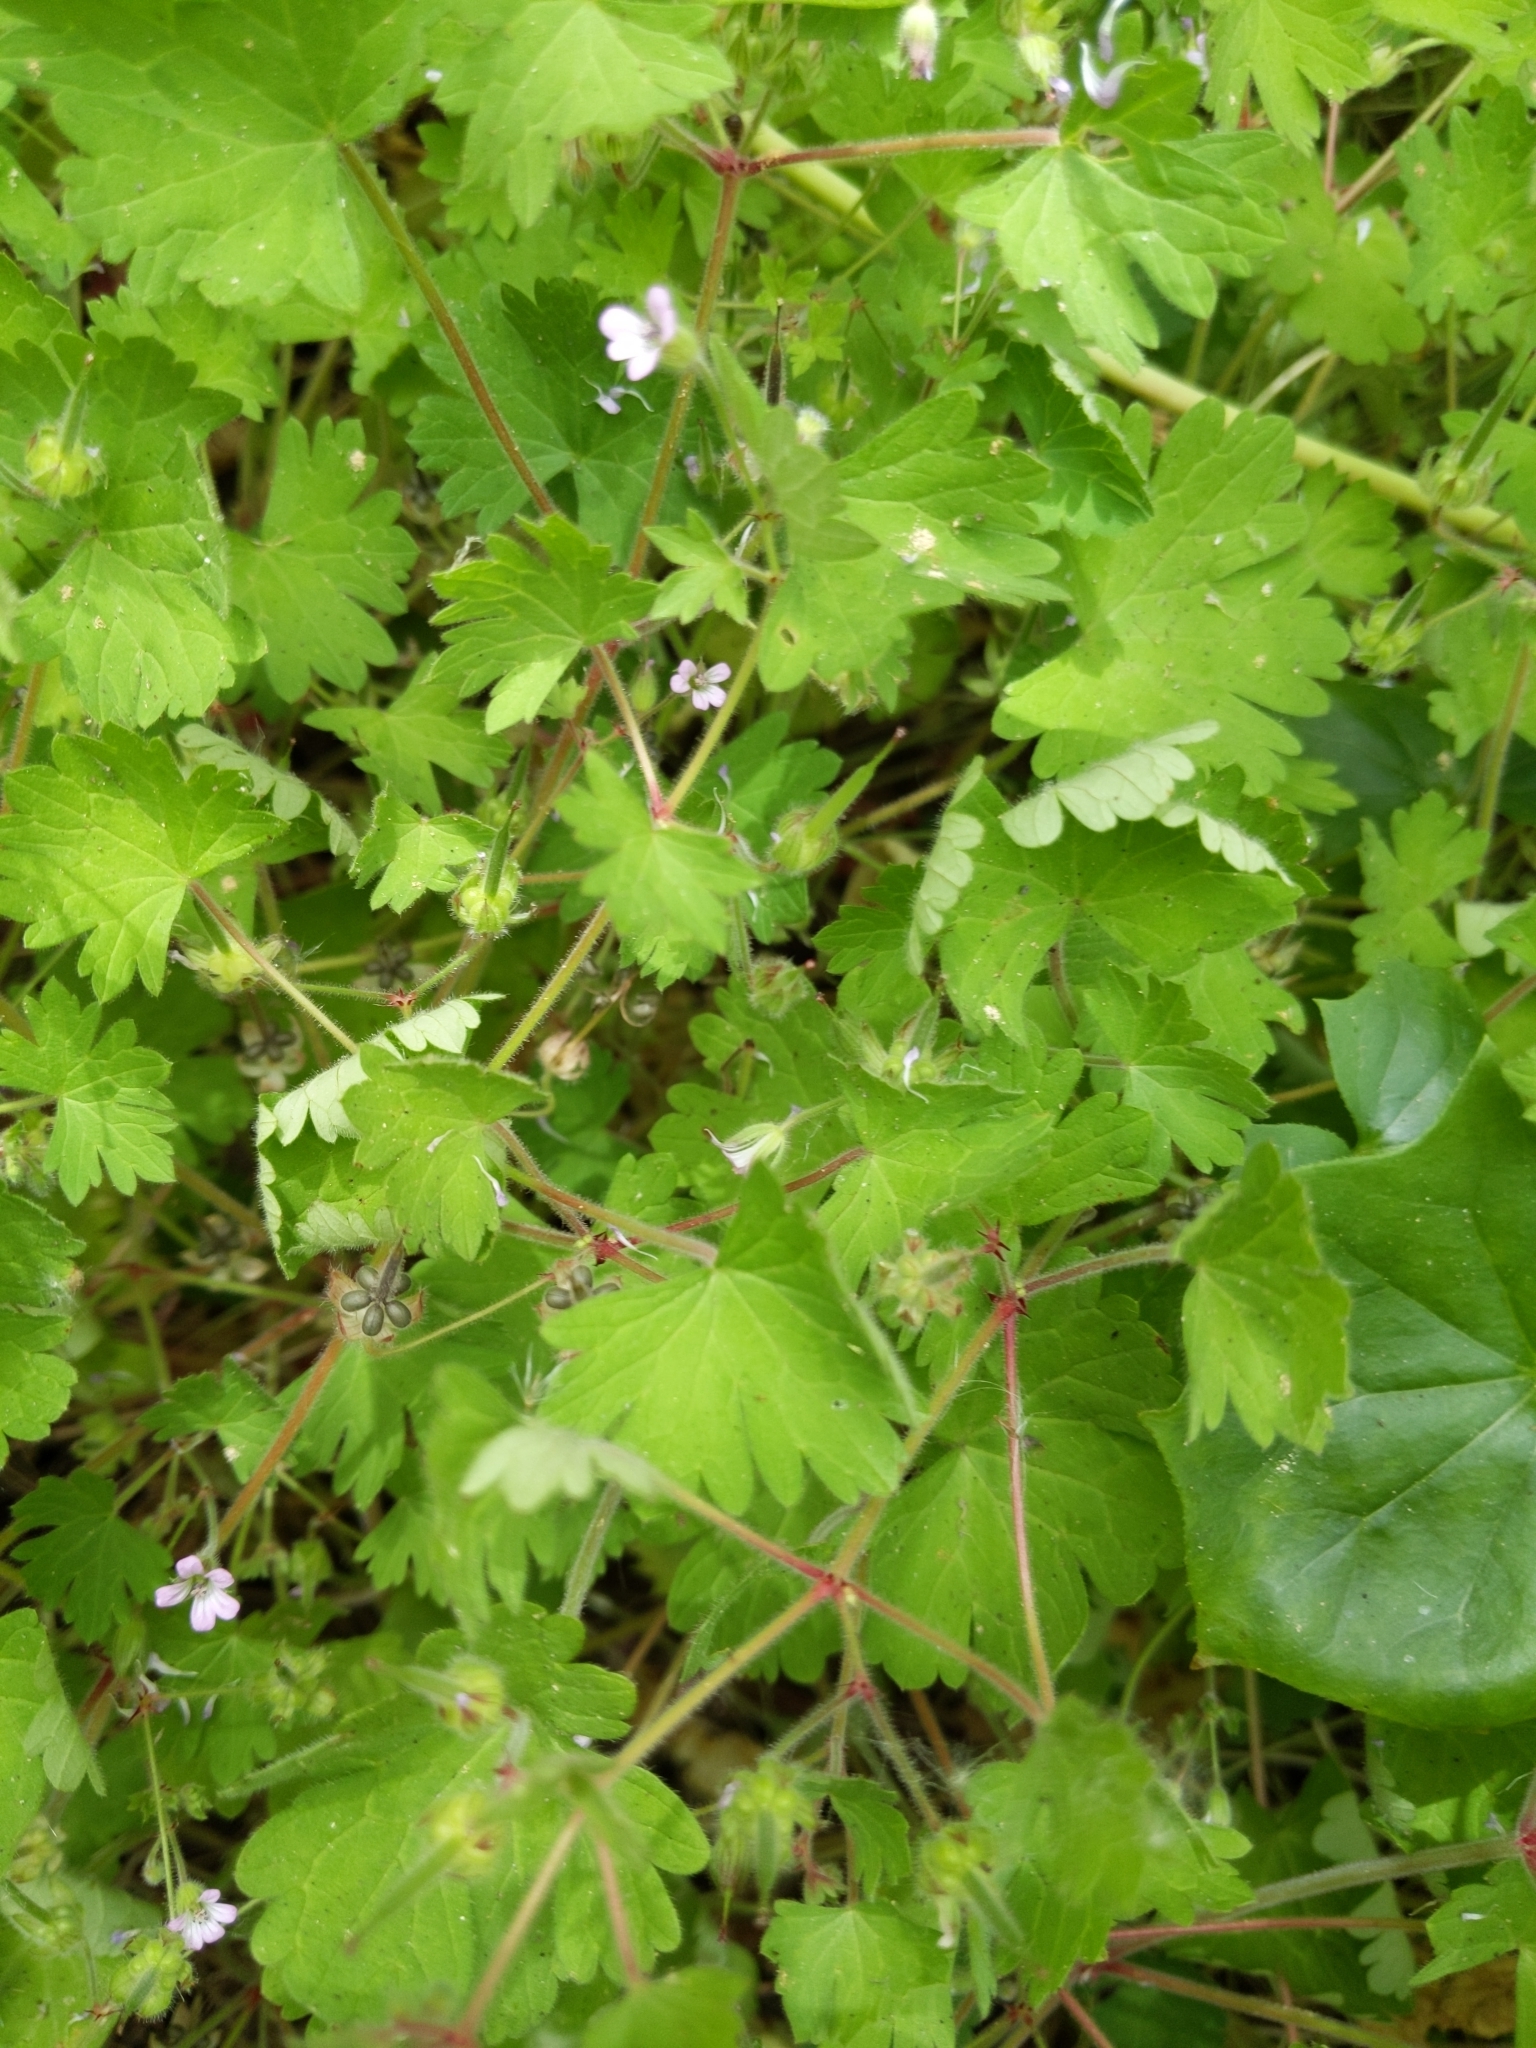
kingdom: Plantae
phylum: Tracheophyta
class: Magnoliopsida
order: Geraniales
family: Geraniaceae
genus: Geranium
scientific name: Geranium rotundifolium
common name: Round-leaved crane's-bill
